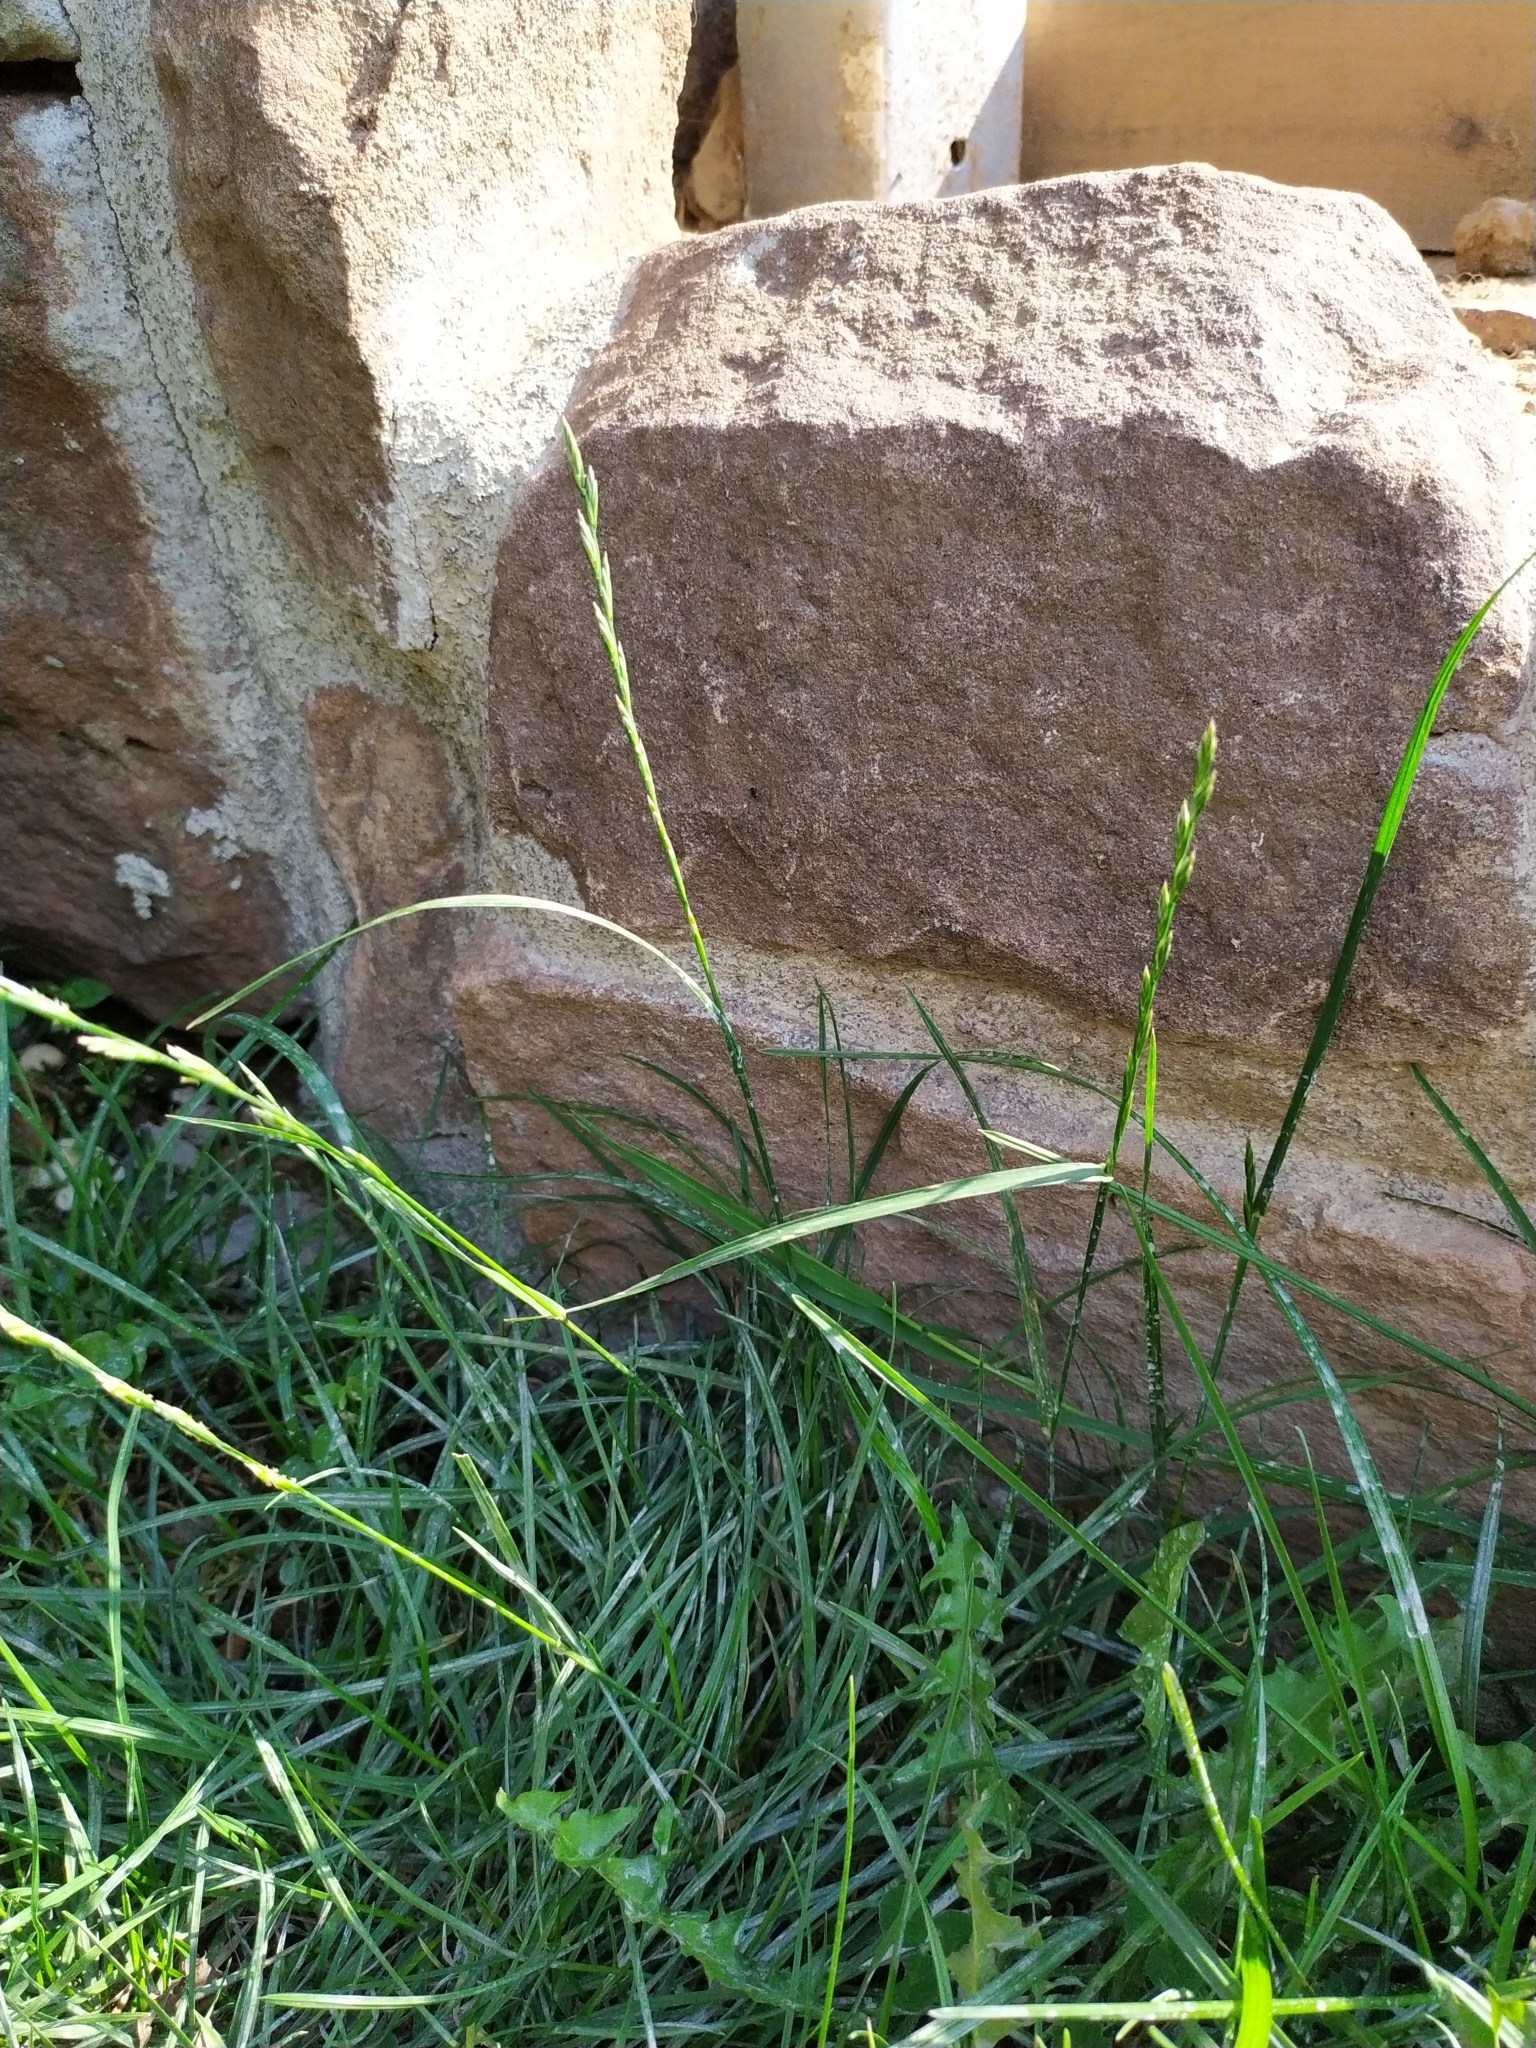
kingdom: Plantae
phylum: Tracheophyta
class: Liliopsida
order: Poales
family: Poaceae
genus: Lolium
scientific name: Lolium perenne
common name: Perennial ryegrass
